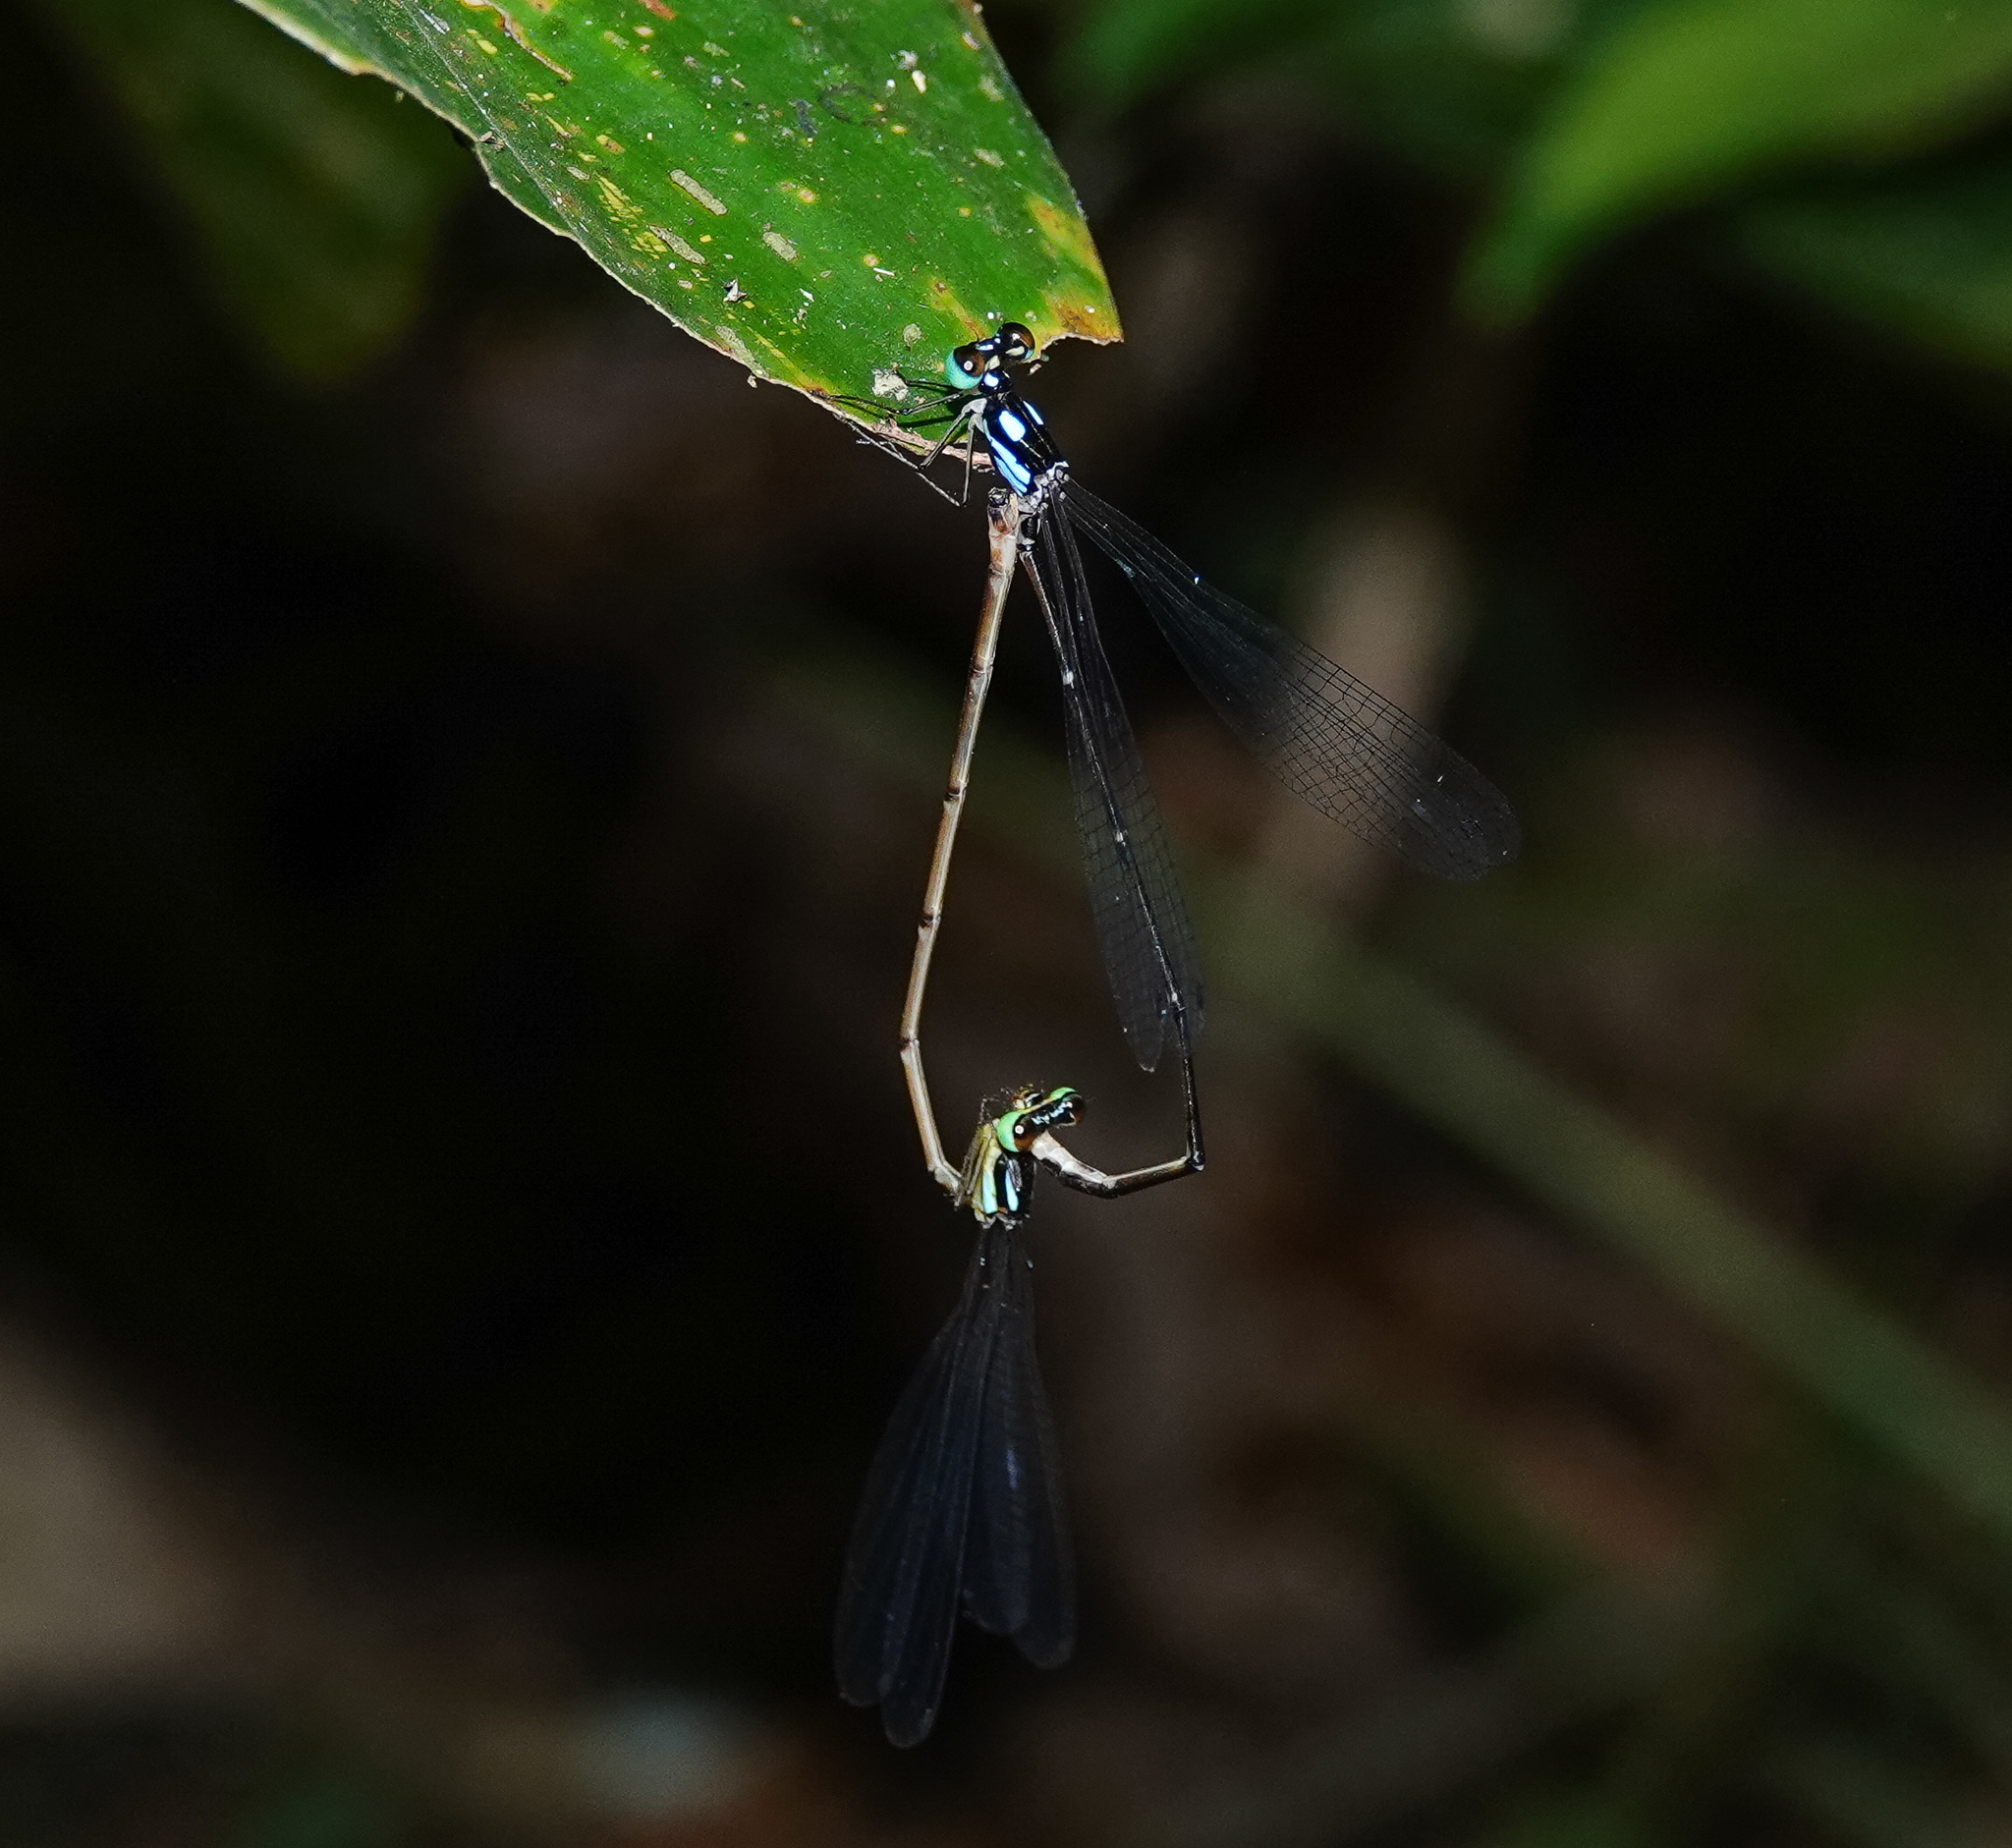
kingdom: Animalia
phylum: Arthropoda
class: Insecta
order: Odonata
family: Platycnemididae
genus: Coeliccia
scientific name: Coeliccia bimaculata
